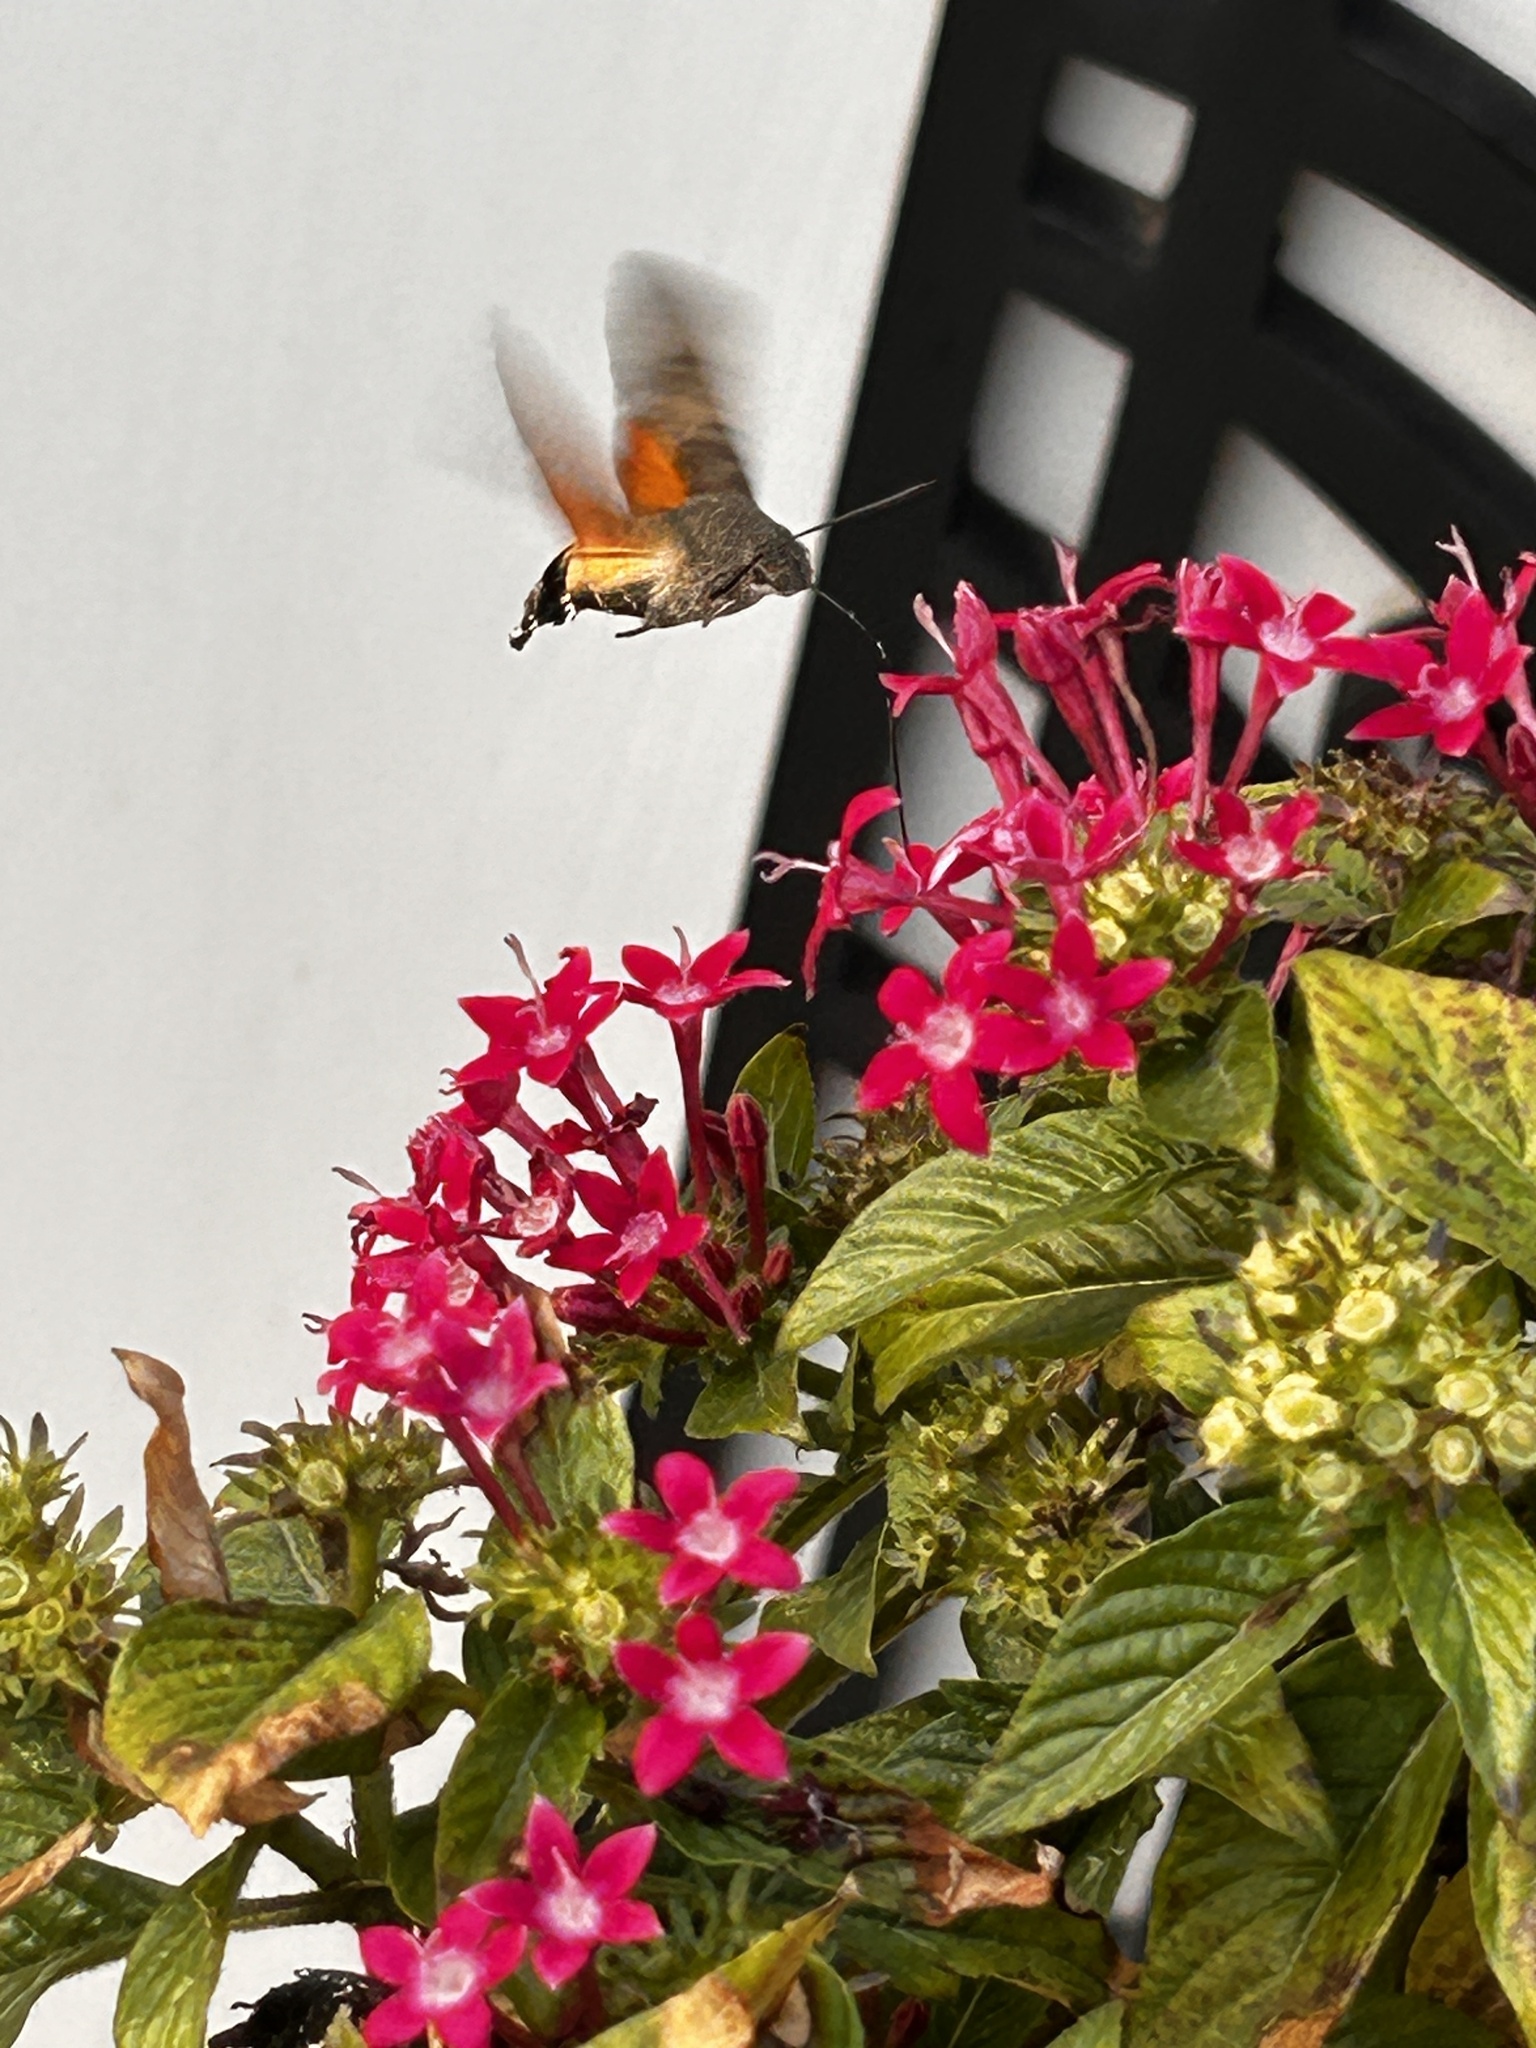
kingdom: Animalia
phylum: Arthropoda
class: Insecta
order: Lepidoptera
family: Sphingidae
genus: Macroglossum
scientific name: Macroglossum stellatarum
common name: Humming-bird hawk-moth
